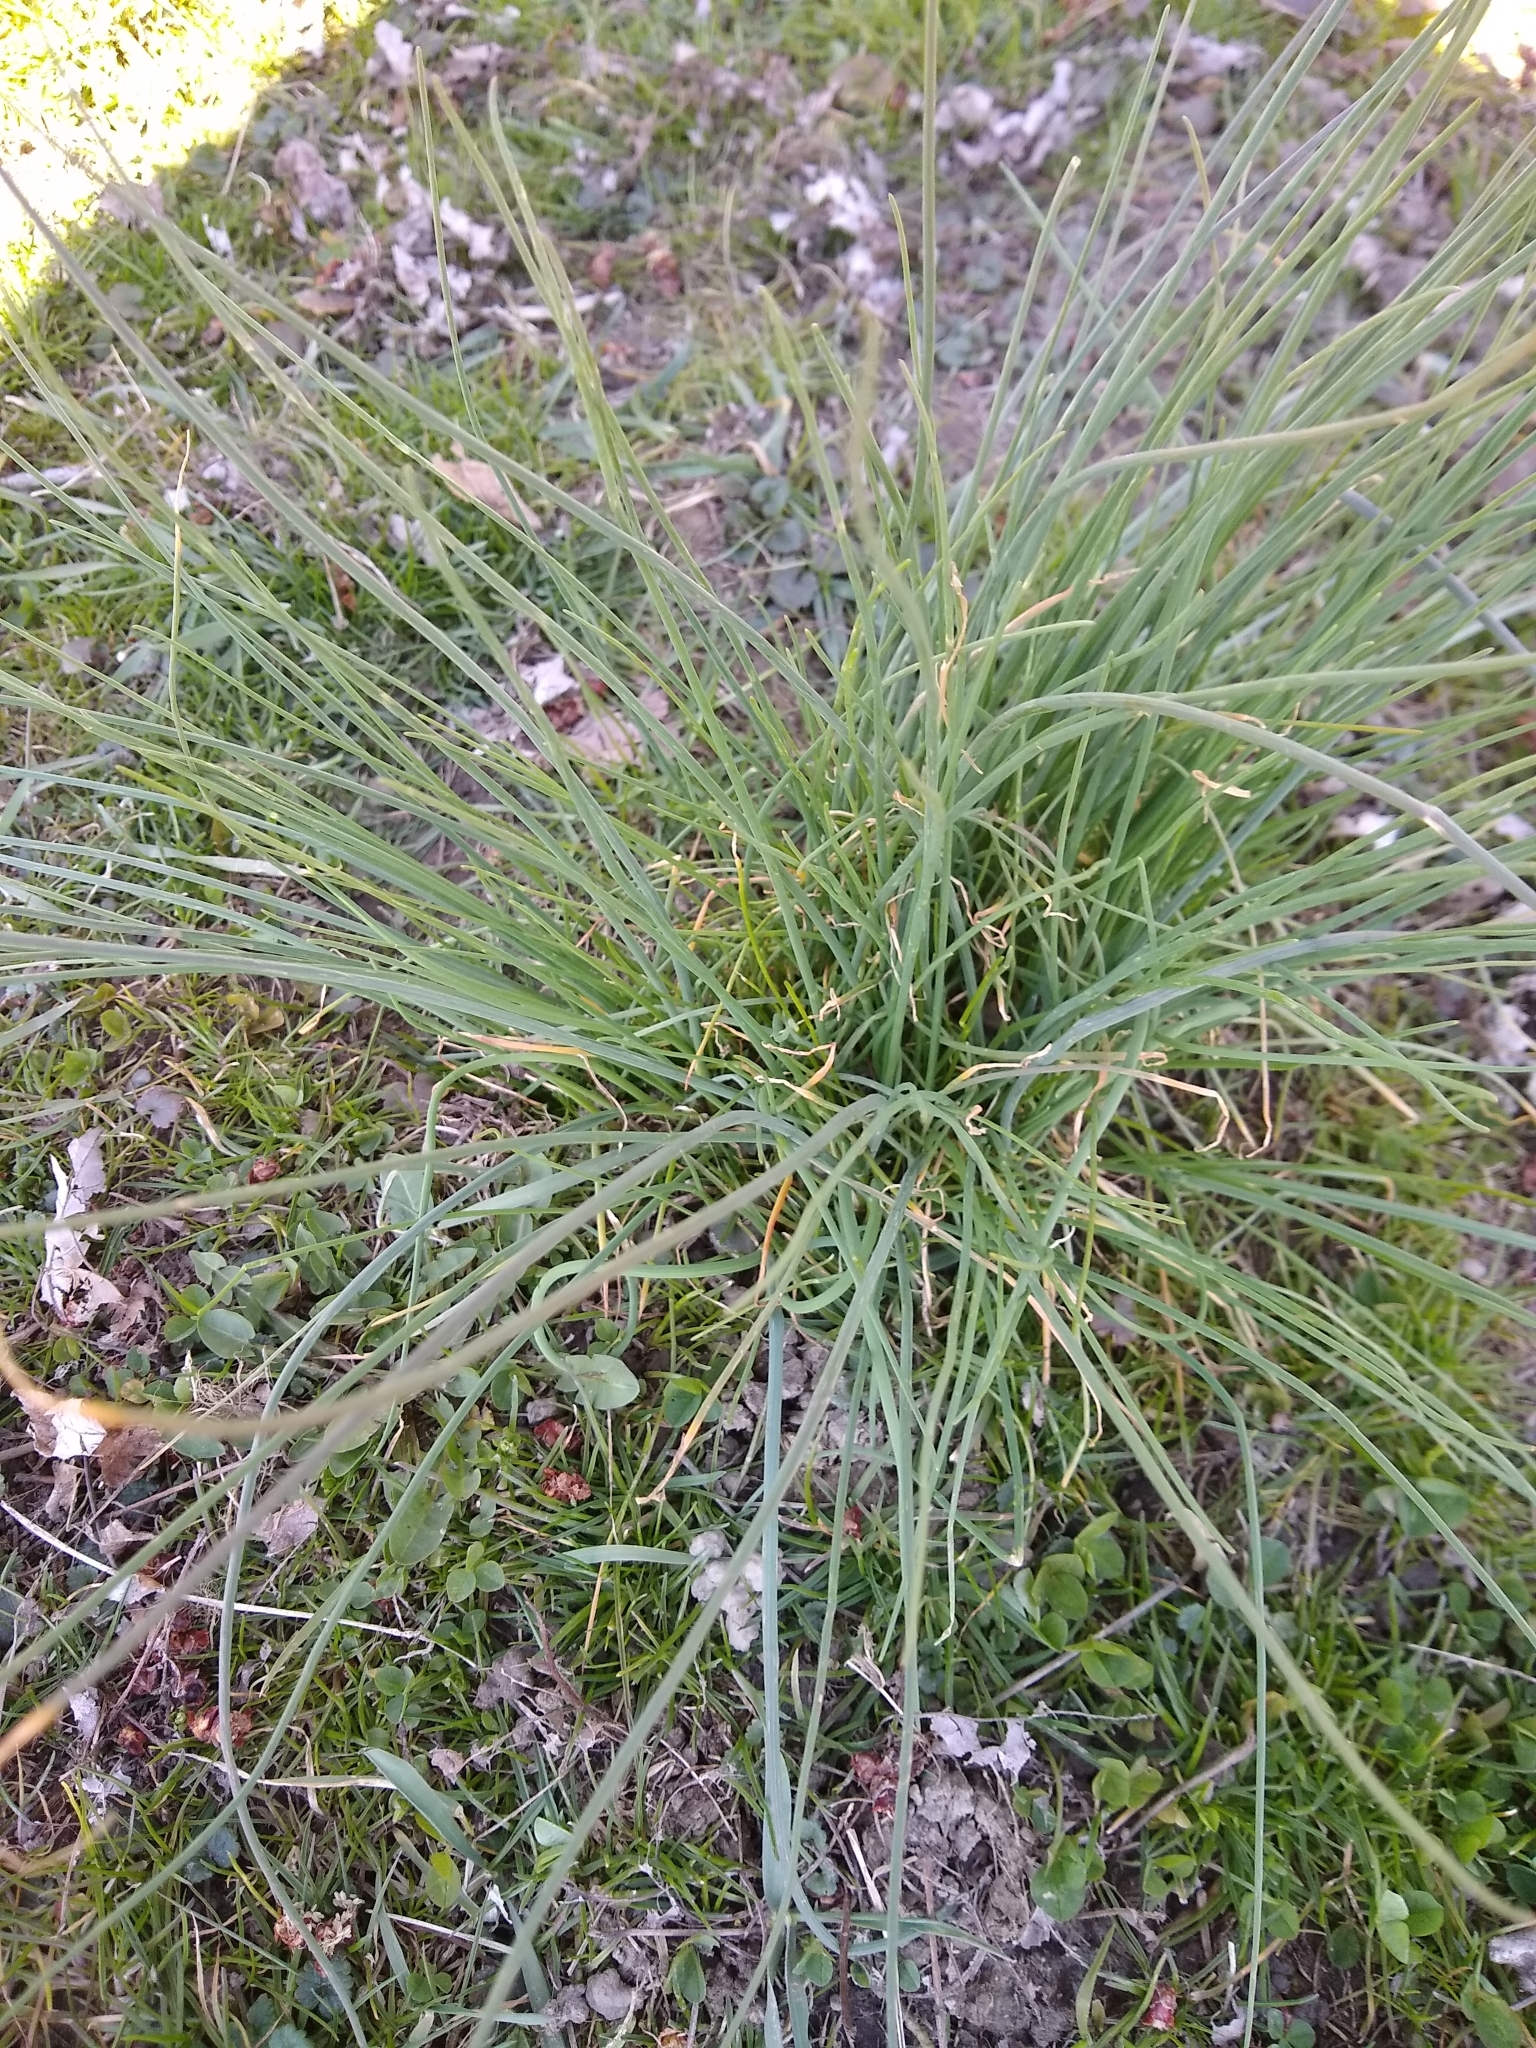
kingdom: Plantae
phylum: Tracheophyta
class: Liliopsida
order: Asparagales
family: Amaryllidaceae
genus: Allium
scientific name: Allium vineale
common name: Crow garlic
